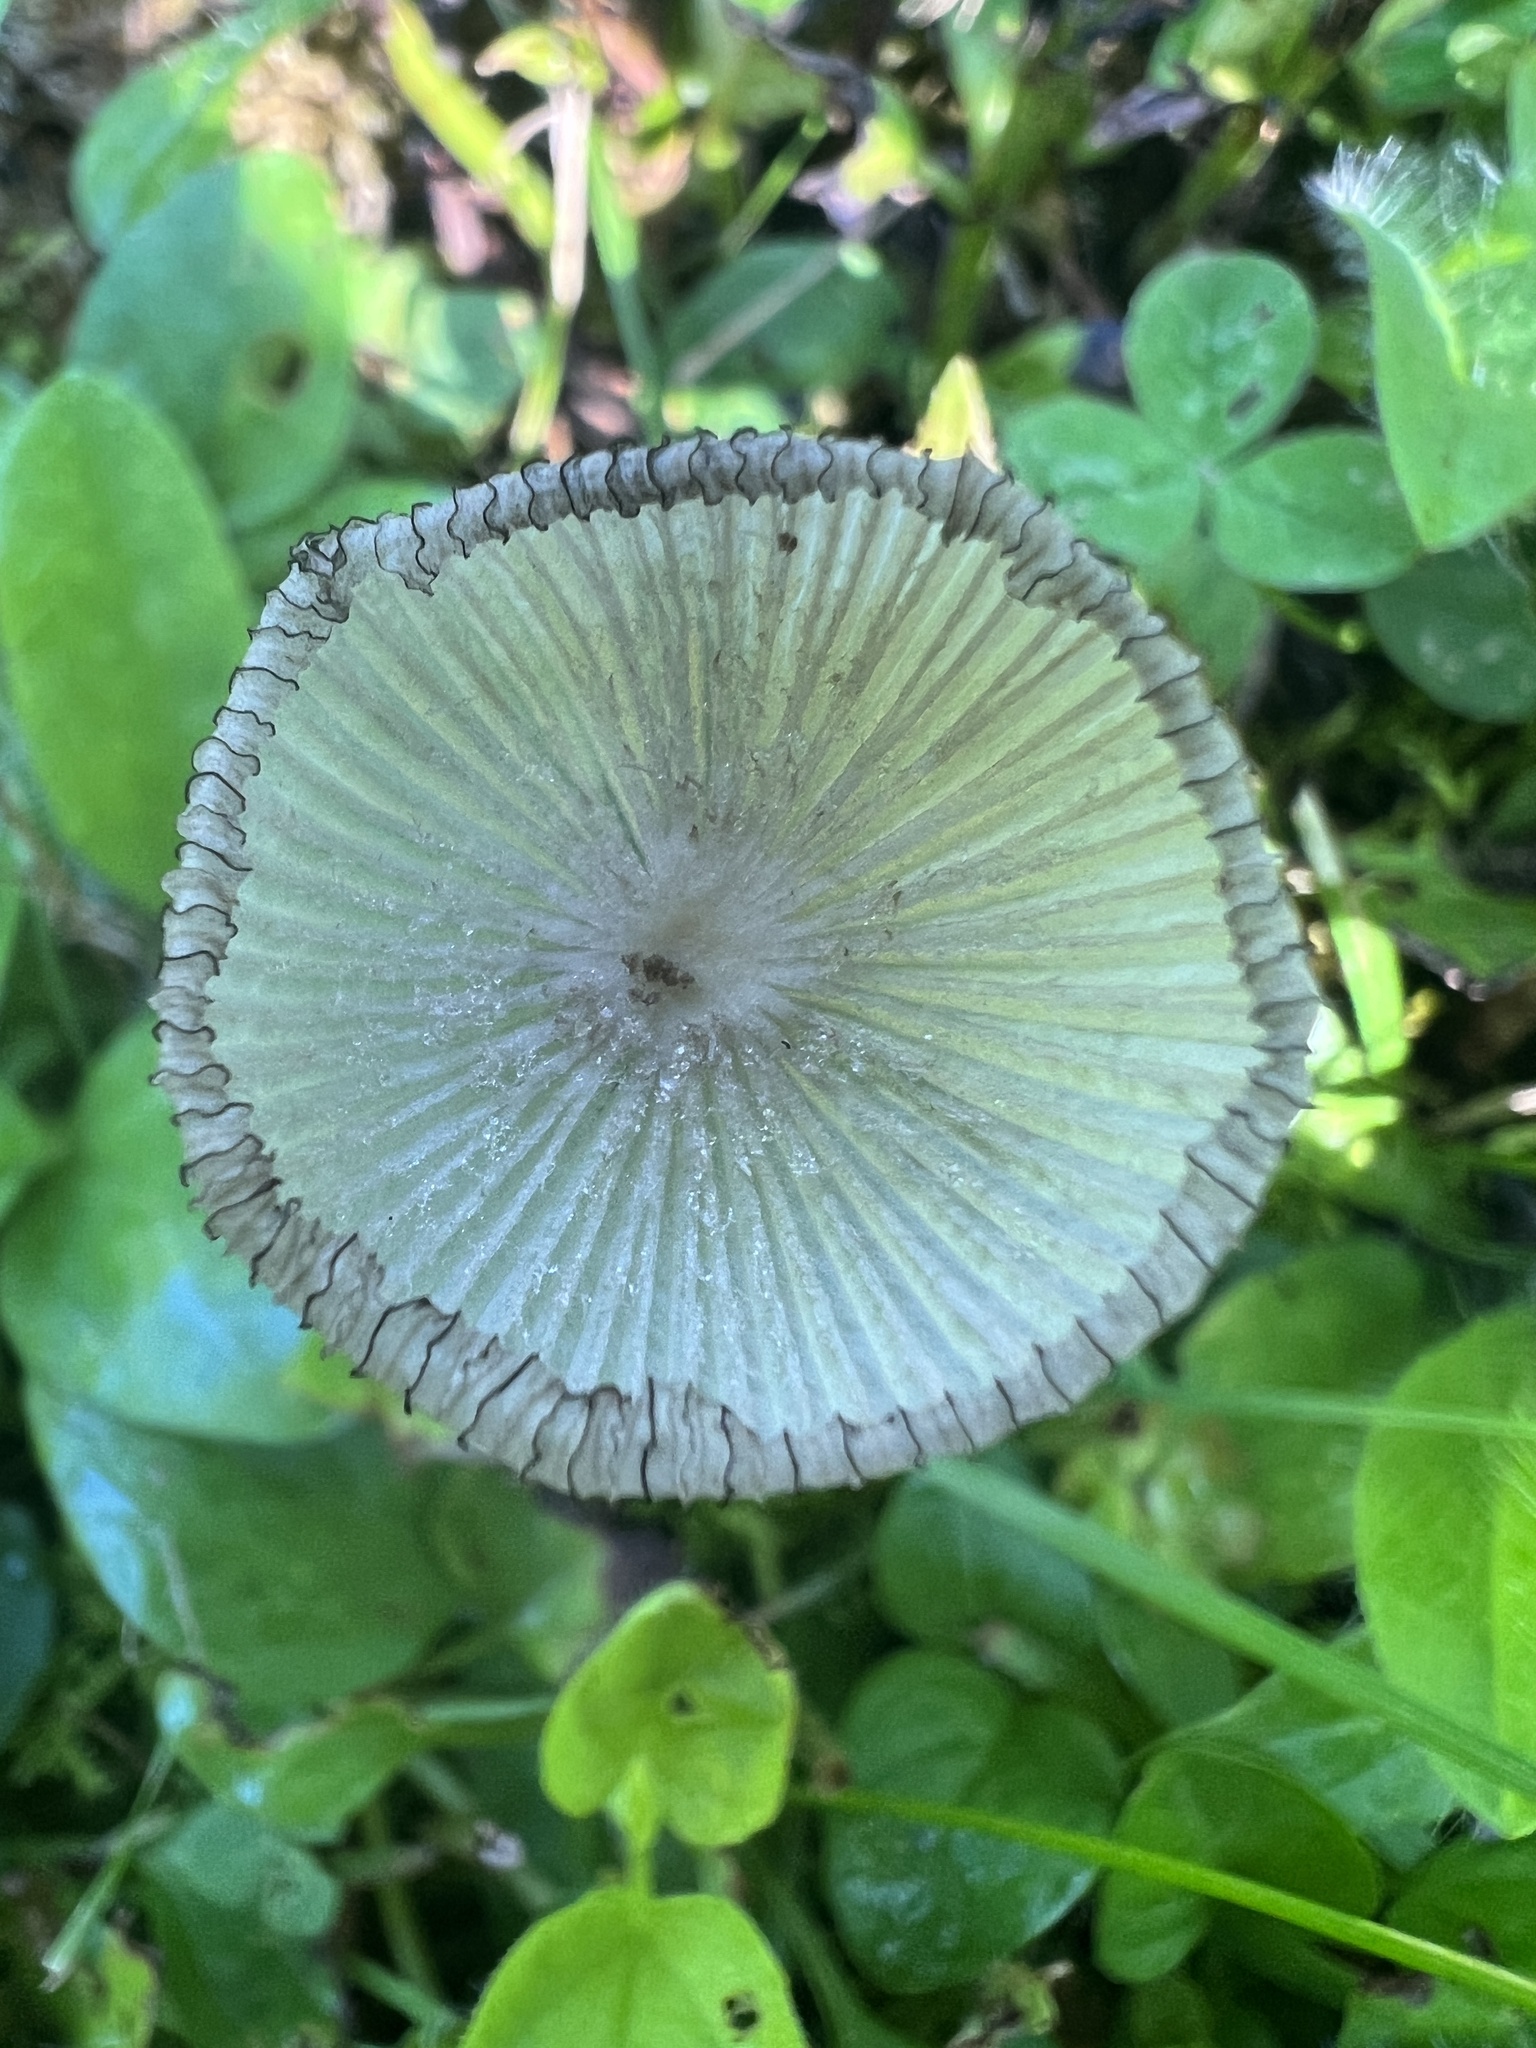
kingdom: Fungi
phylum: Basidiomycota
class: Agaricomycetes
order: Agaricales
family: Psathyrellaceae
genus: Coprinopsis
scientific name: Coprinopsis lagopus
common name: Hare'sfoot inkcap
